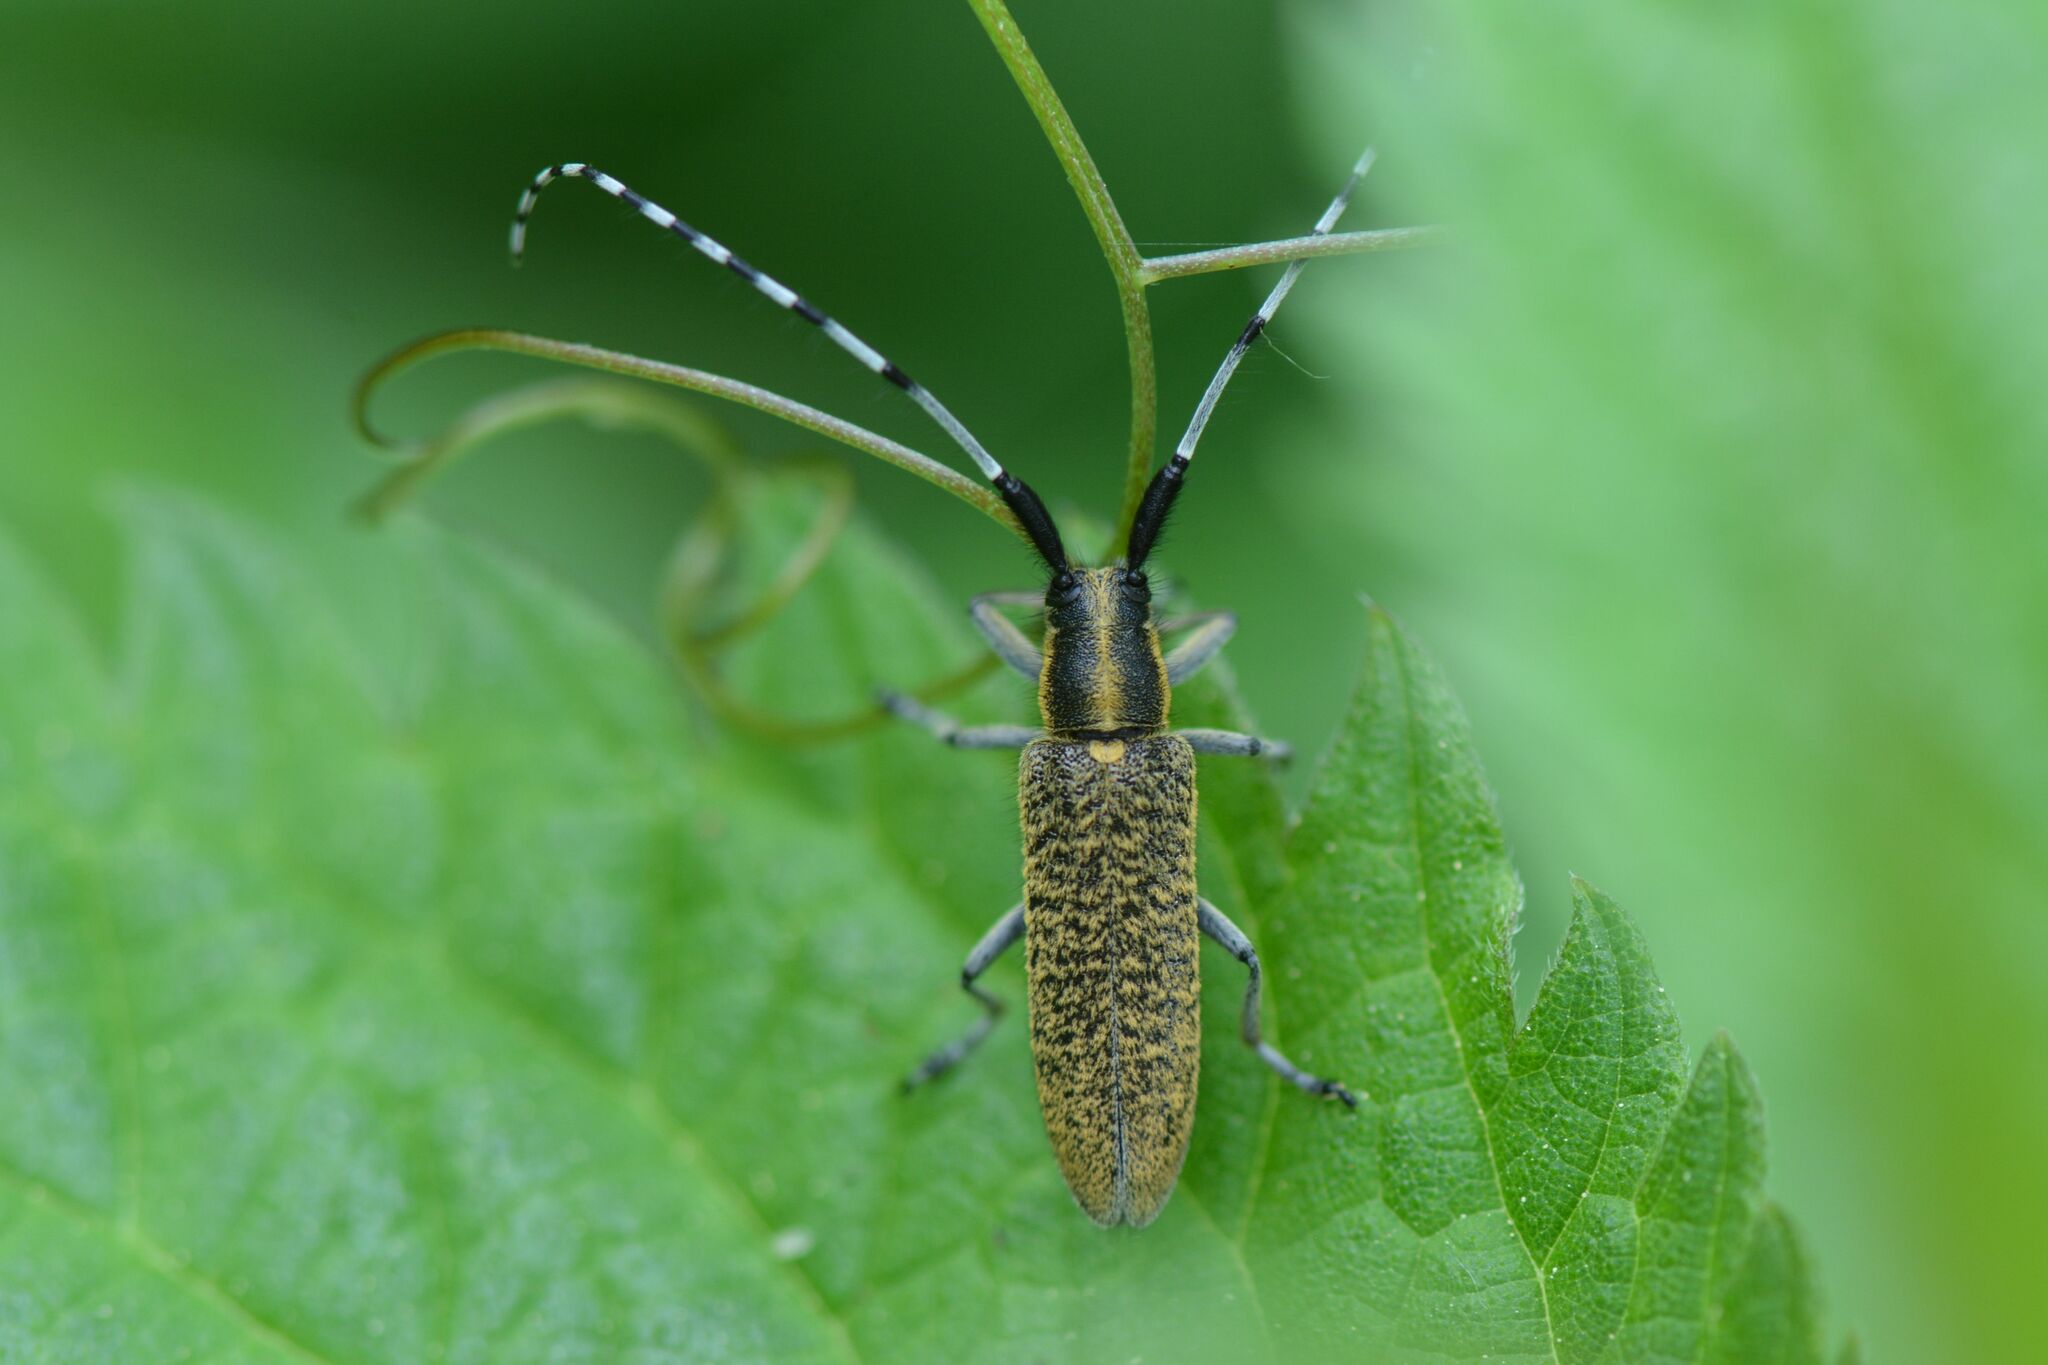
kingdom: Animalia
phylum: Arthropoda
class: Insecta
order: Coleoptera
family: Cerambycidae
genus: Agapanthia
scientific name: Agapanthia villosoviridescens
